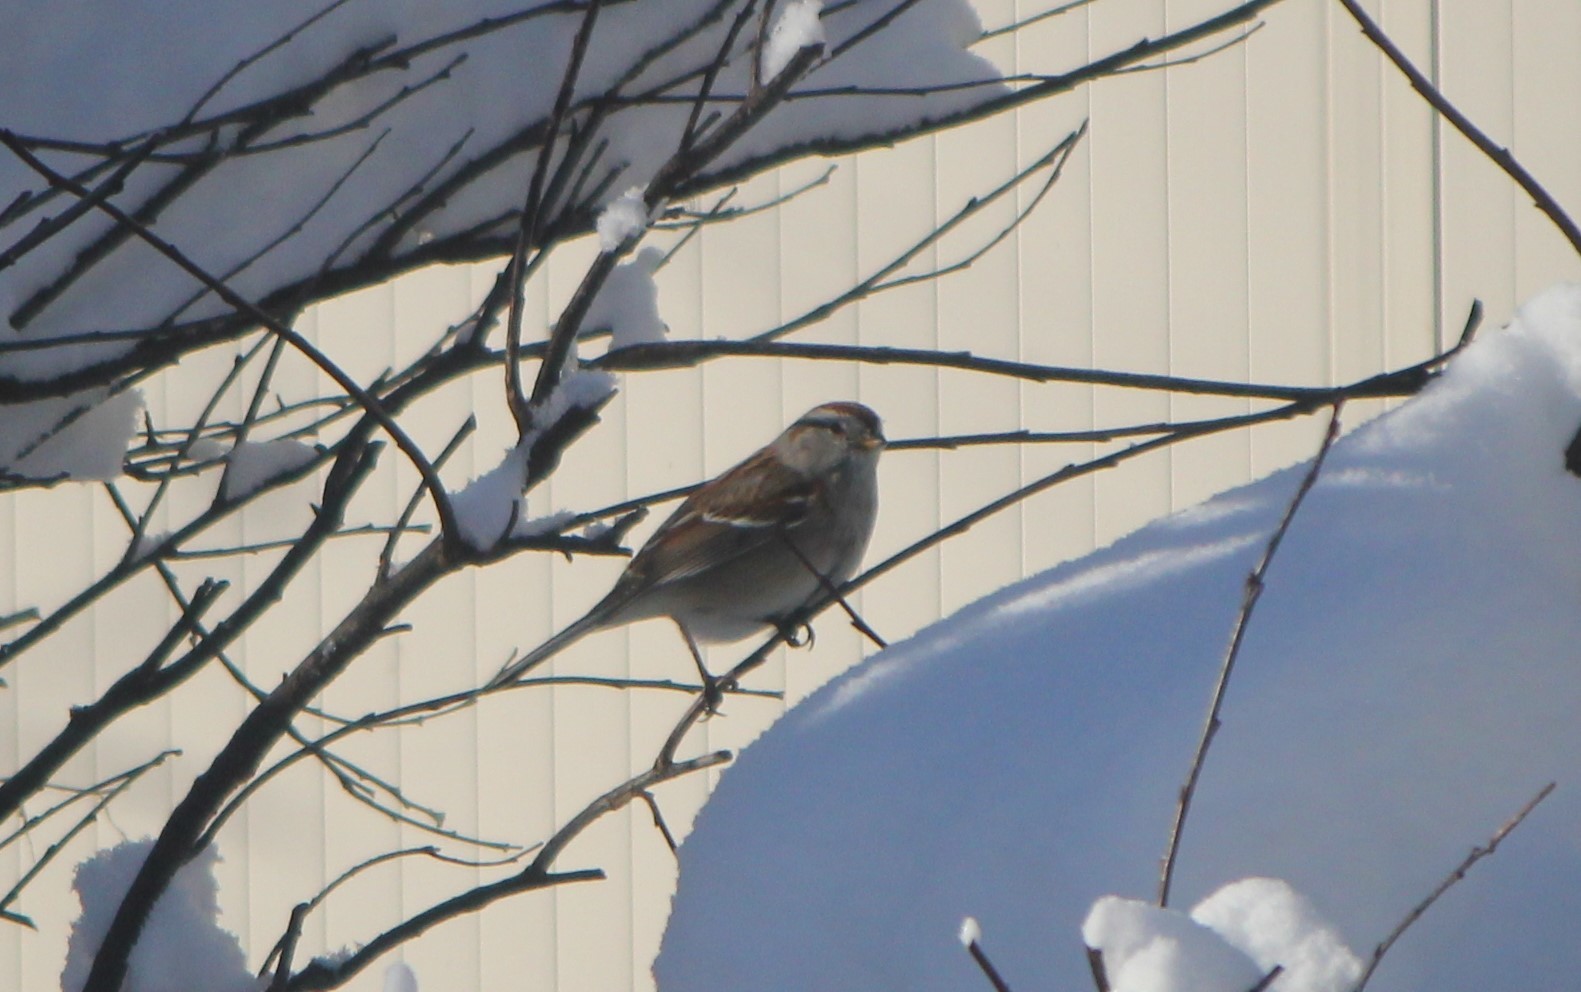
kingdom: Animalia
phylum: Chordata
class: Aves
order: Passeriformes
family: Passerellidae
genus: Spizelloides
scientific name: Spizelloides arborea
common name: American tree sparrow
